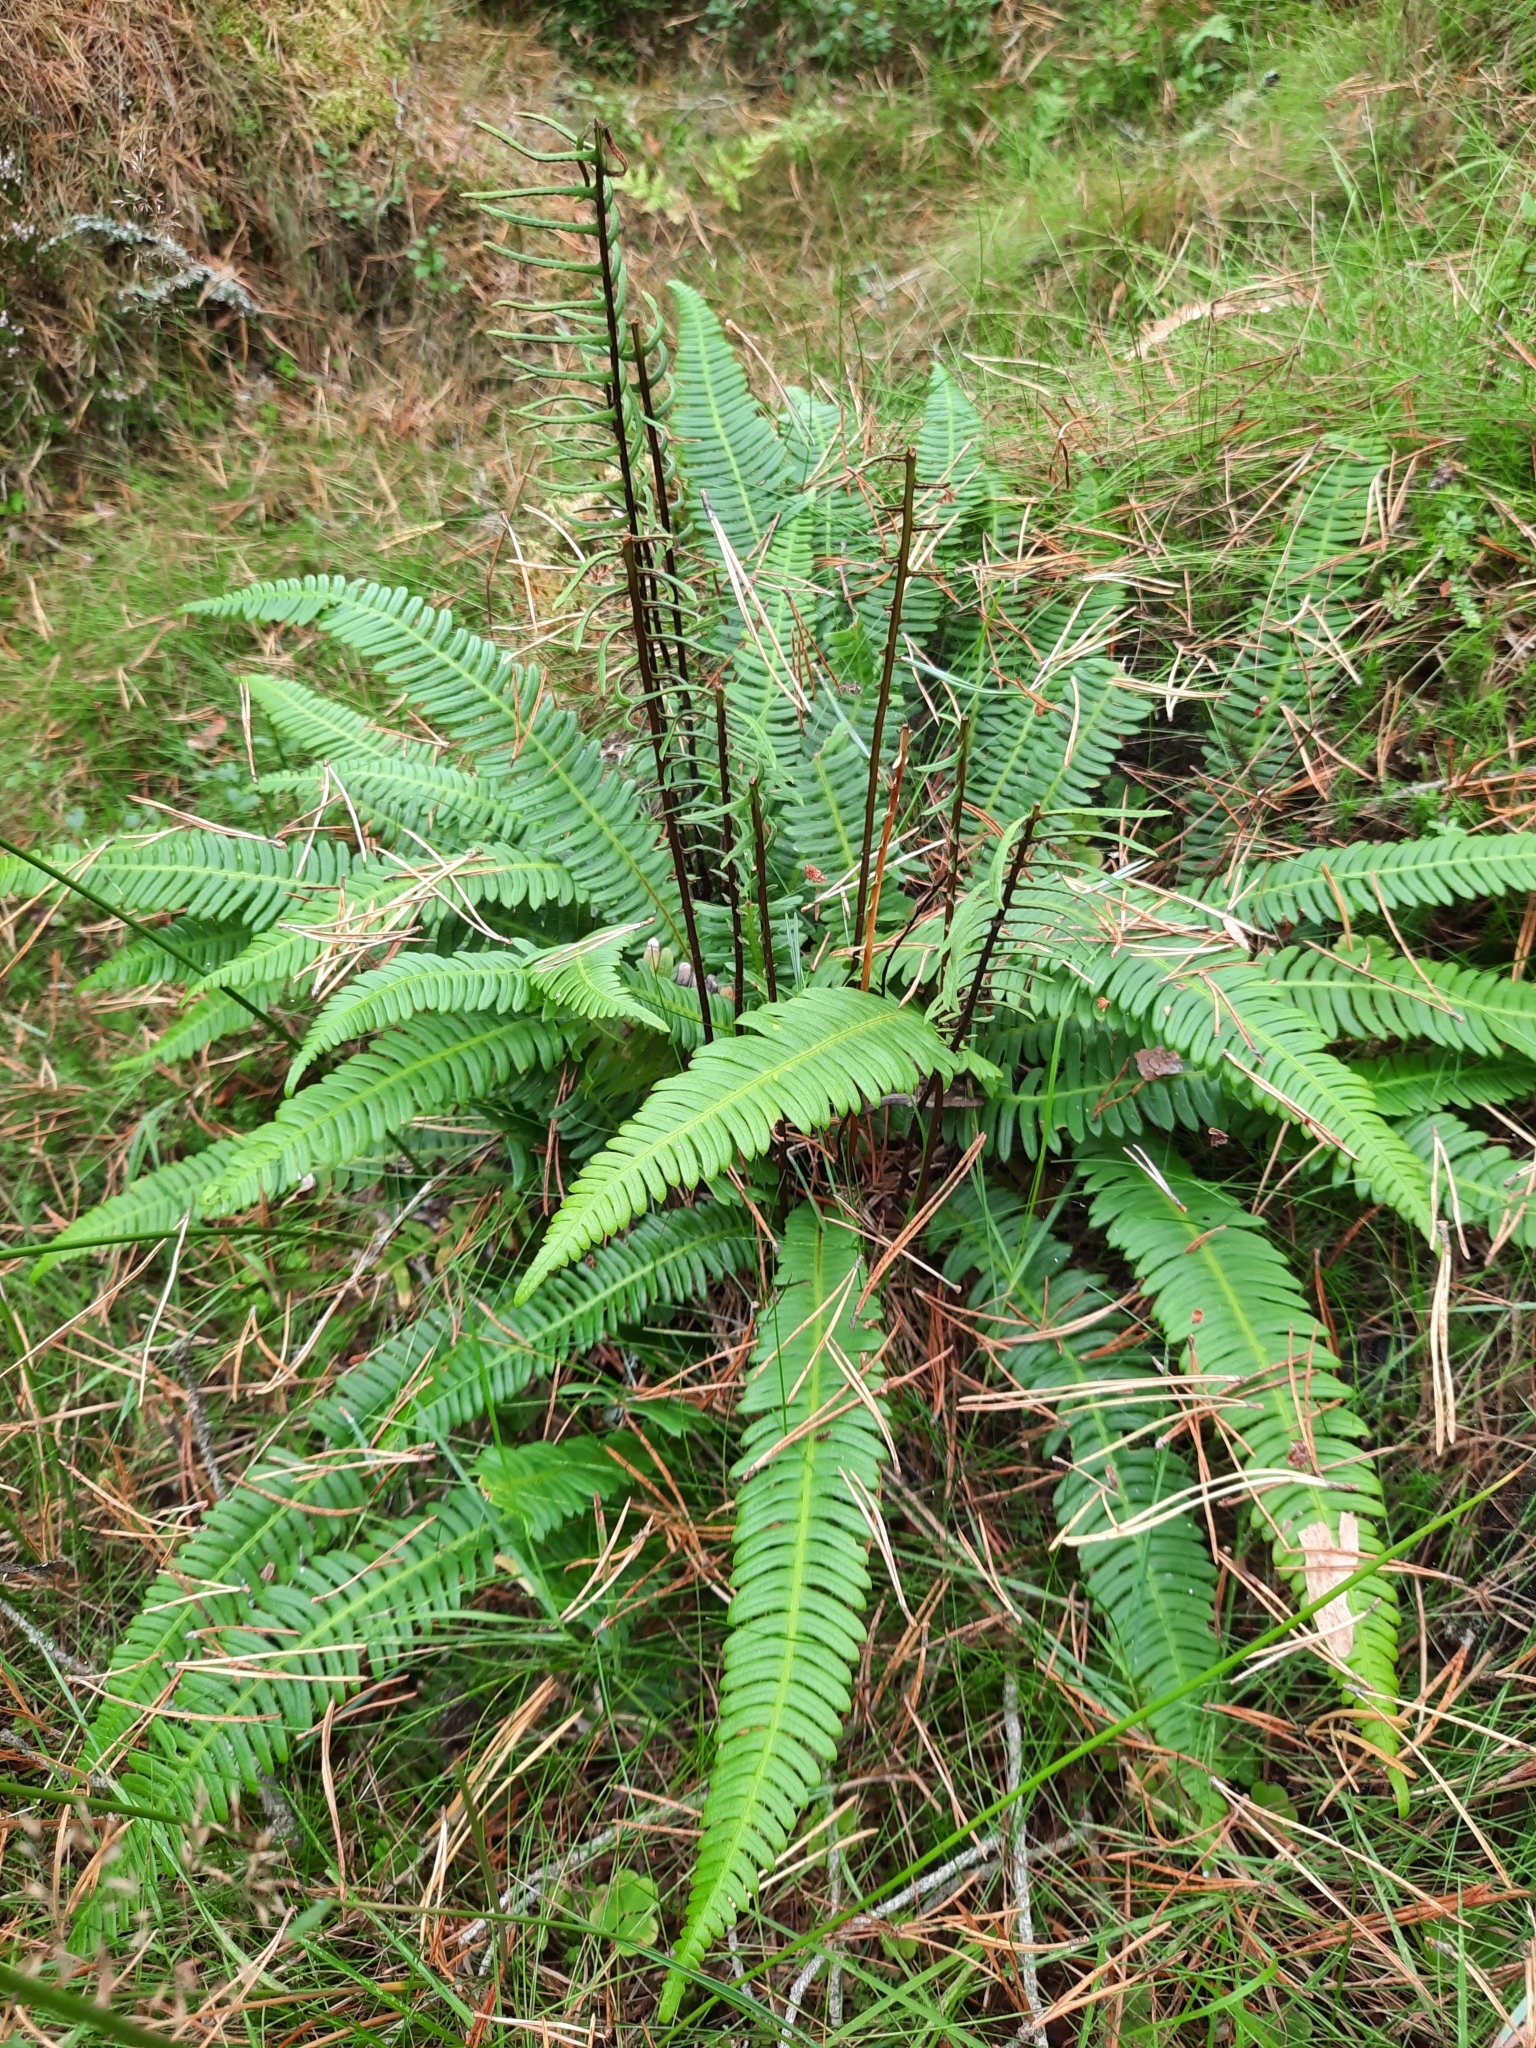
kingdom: Plantae
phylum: Tracheophyta
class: Polypodiopsida
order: Polypodiales
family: Blechnaceae
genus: Struthiopteris
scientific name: Struthiopteris spicant
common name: Deer fern
